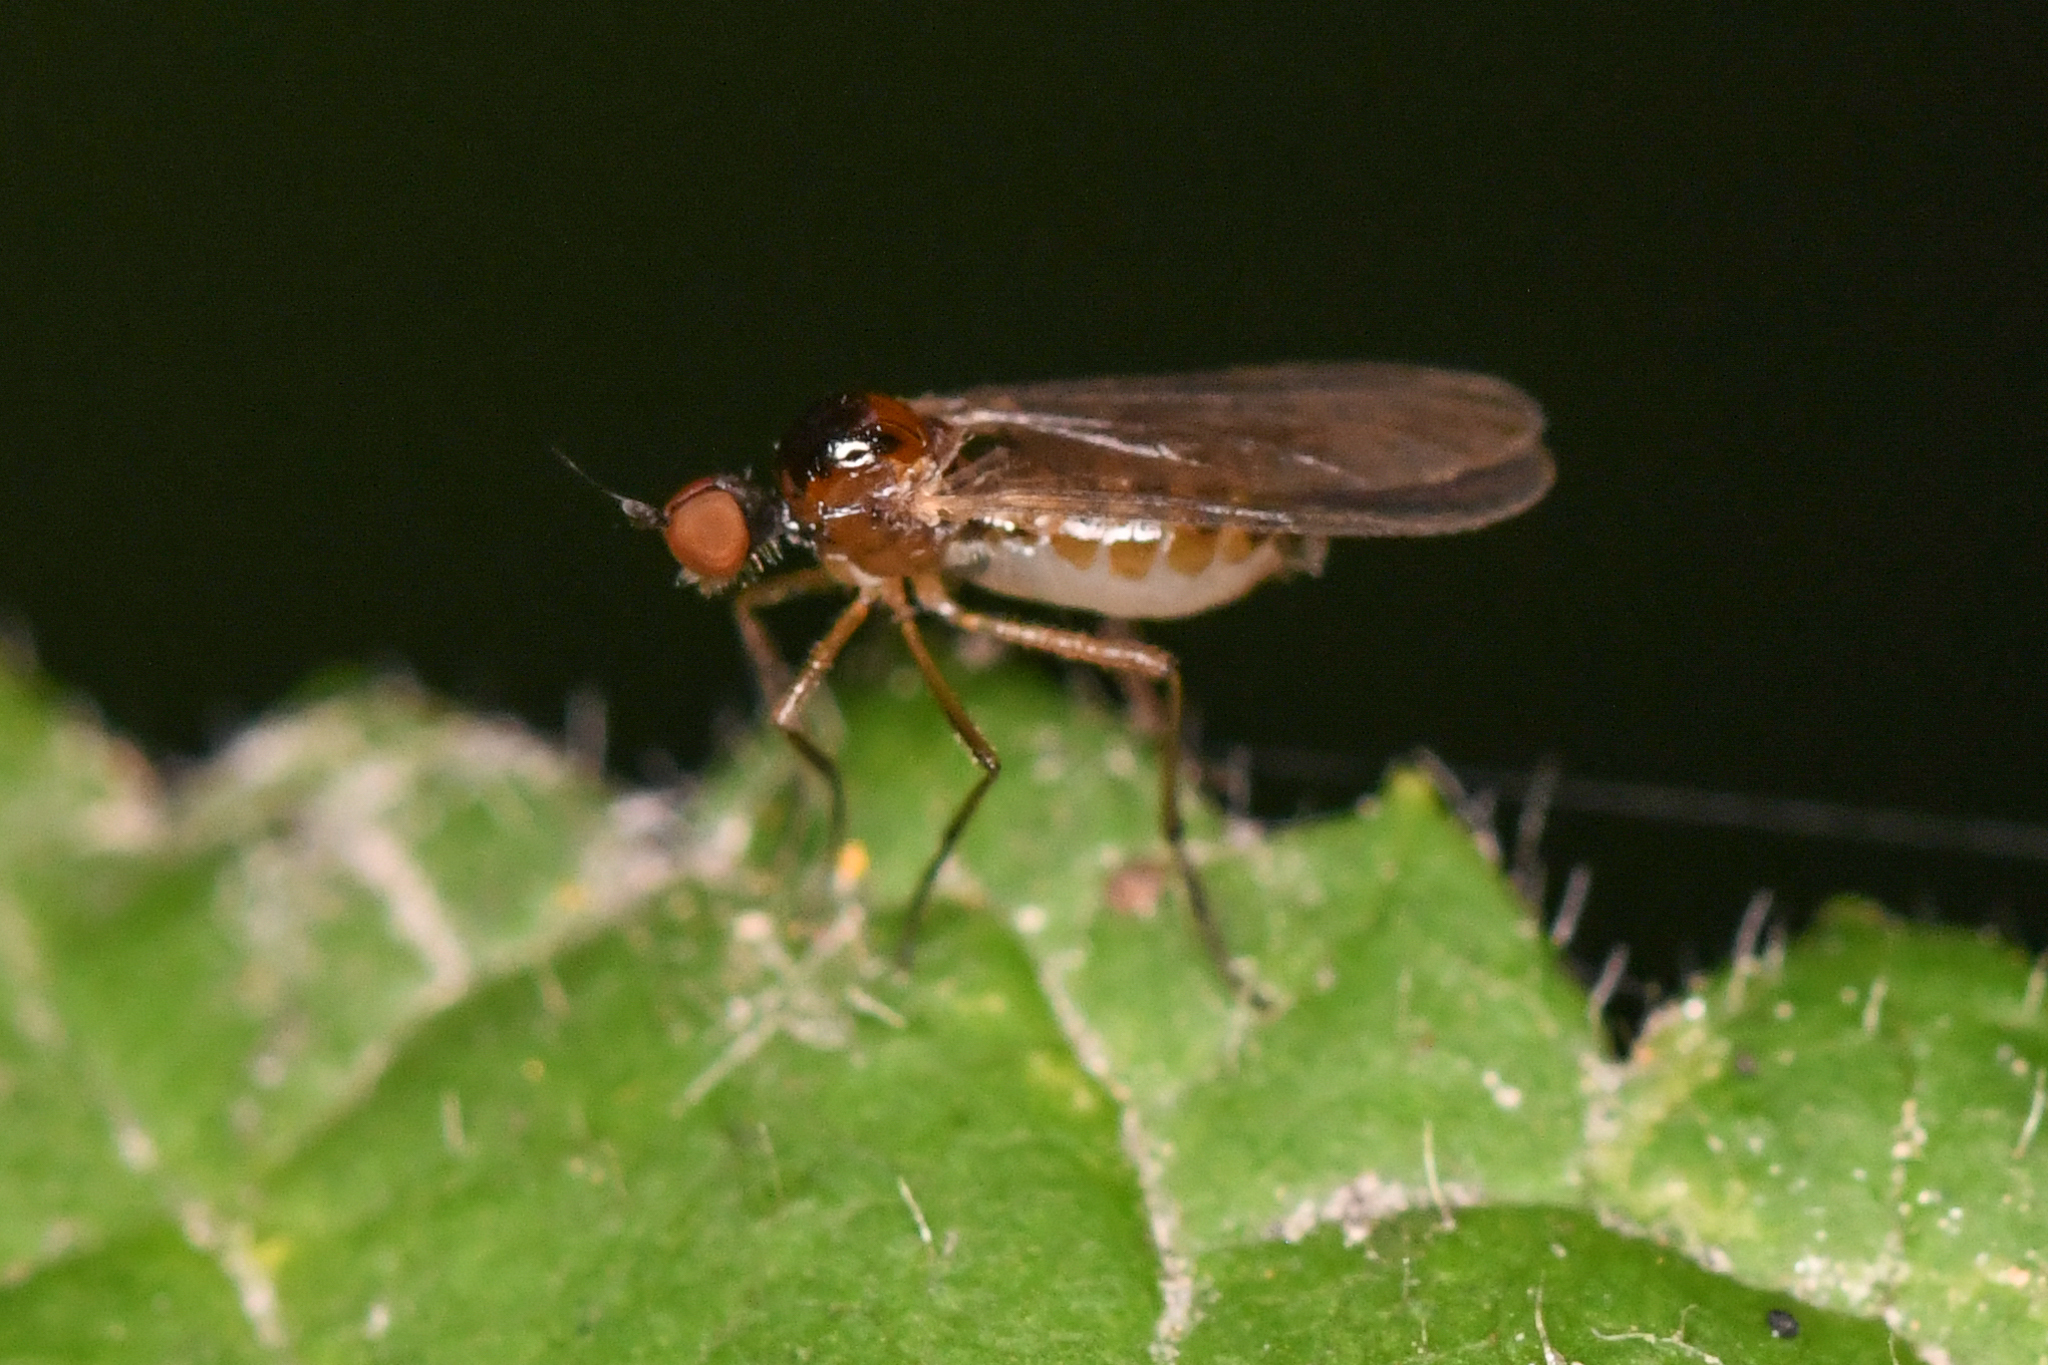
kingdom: Animalia
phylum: Arthropoda
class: Insecta
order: Diptera
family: Hybotidae
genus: Ocydromia
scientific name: Ocydromia glabricula
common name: Dance fly
